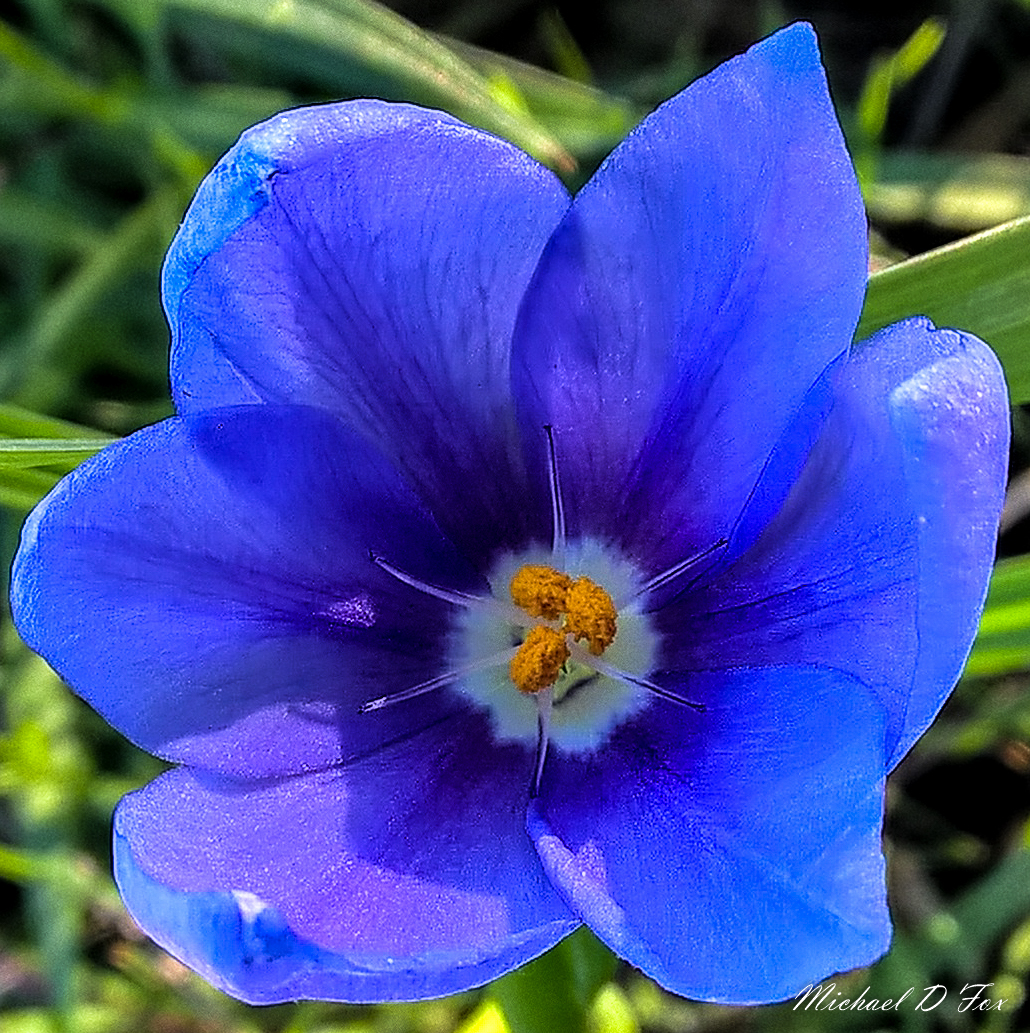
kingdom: Plantae
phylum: Tracheophyta
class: Liliopsida
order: Asparagales
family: Iridaceae
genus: Nemastylis
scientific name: Nemastylis geminiflora
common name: Prairie celestial
